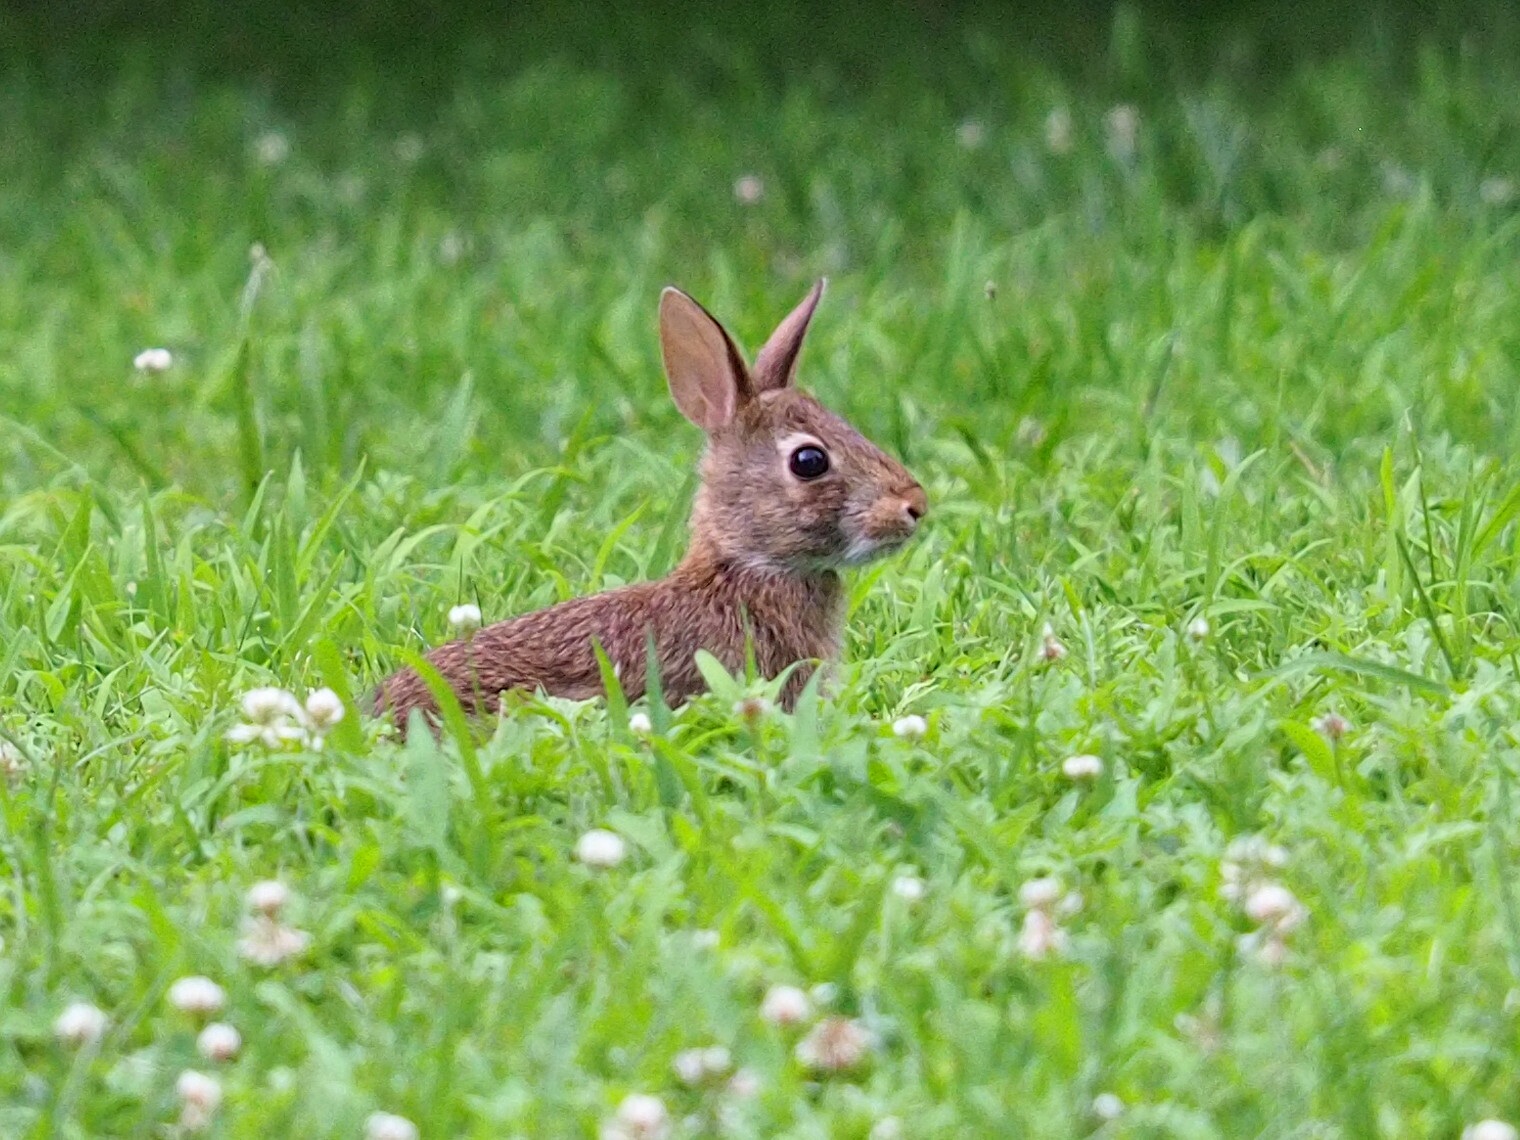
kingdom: Animalia
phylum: Chordata
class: Mammalia
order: Lagomorpha
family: Leporidae
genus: Sylvilagus
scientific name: Sylvilagus floridanus
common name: Eastern cottontail
